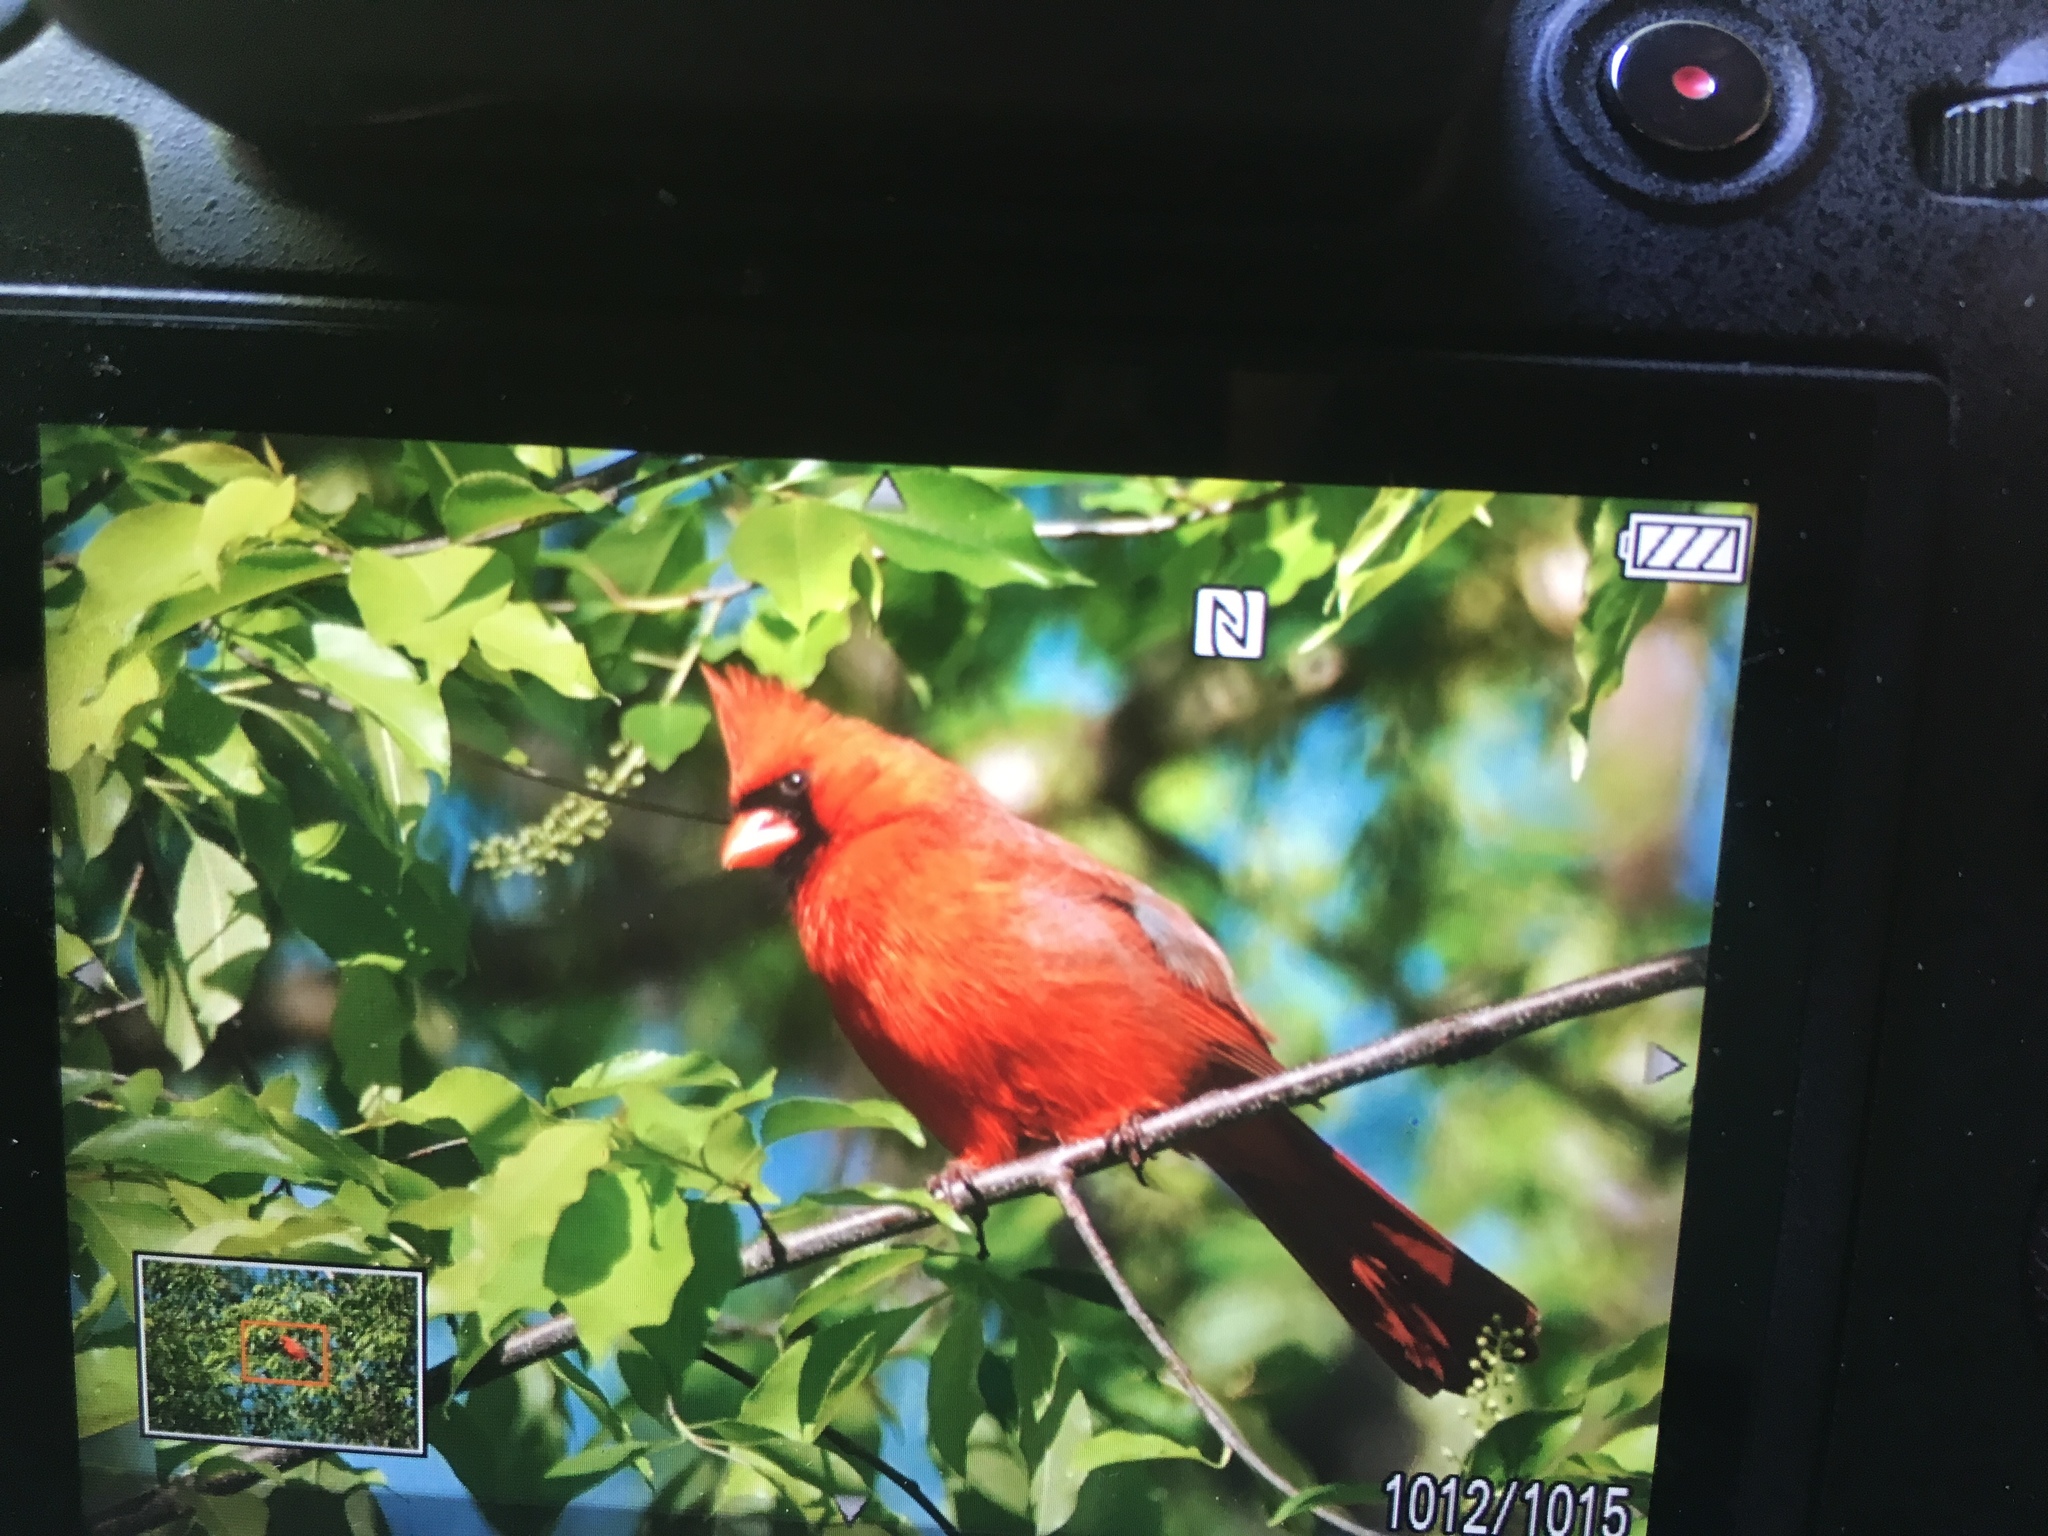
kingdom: Animalia
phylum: Chordata
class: Aves
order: Passeriformes
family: Cardinalidae
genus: Cardinalis
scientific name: Cardinalis cardinalis
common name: Northern cardinal
